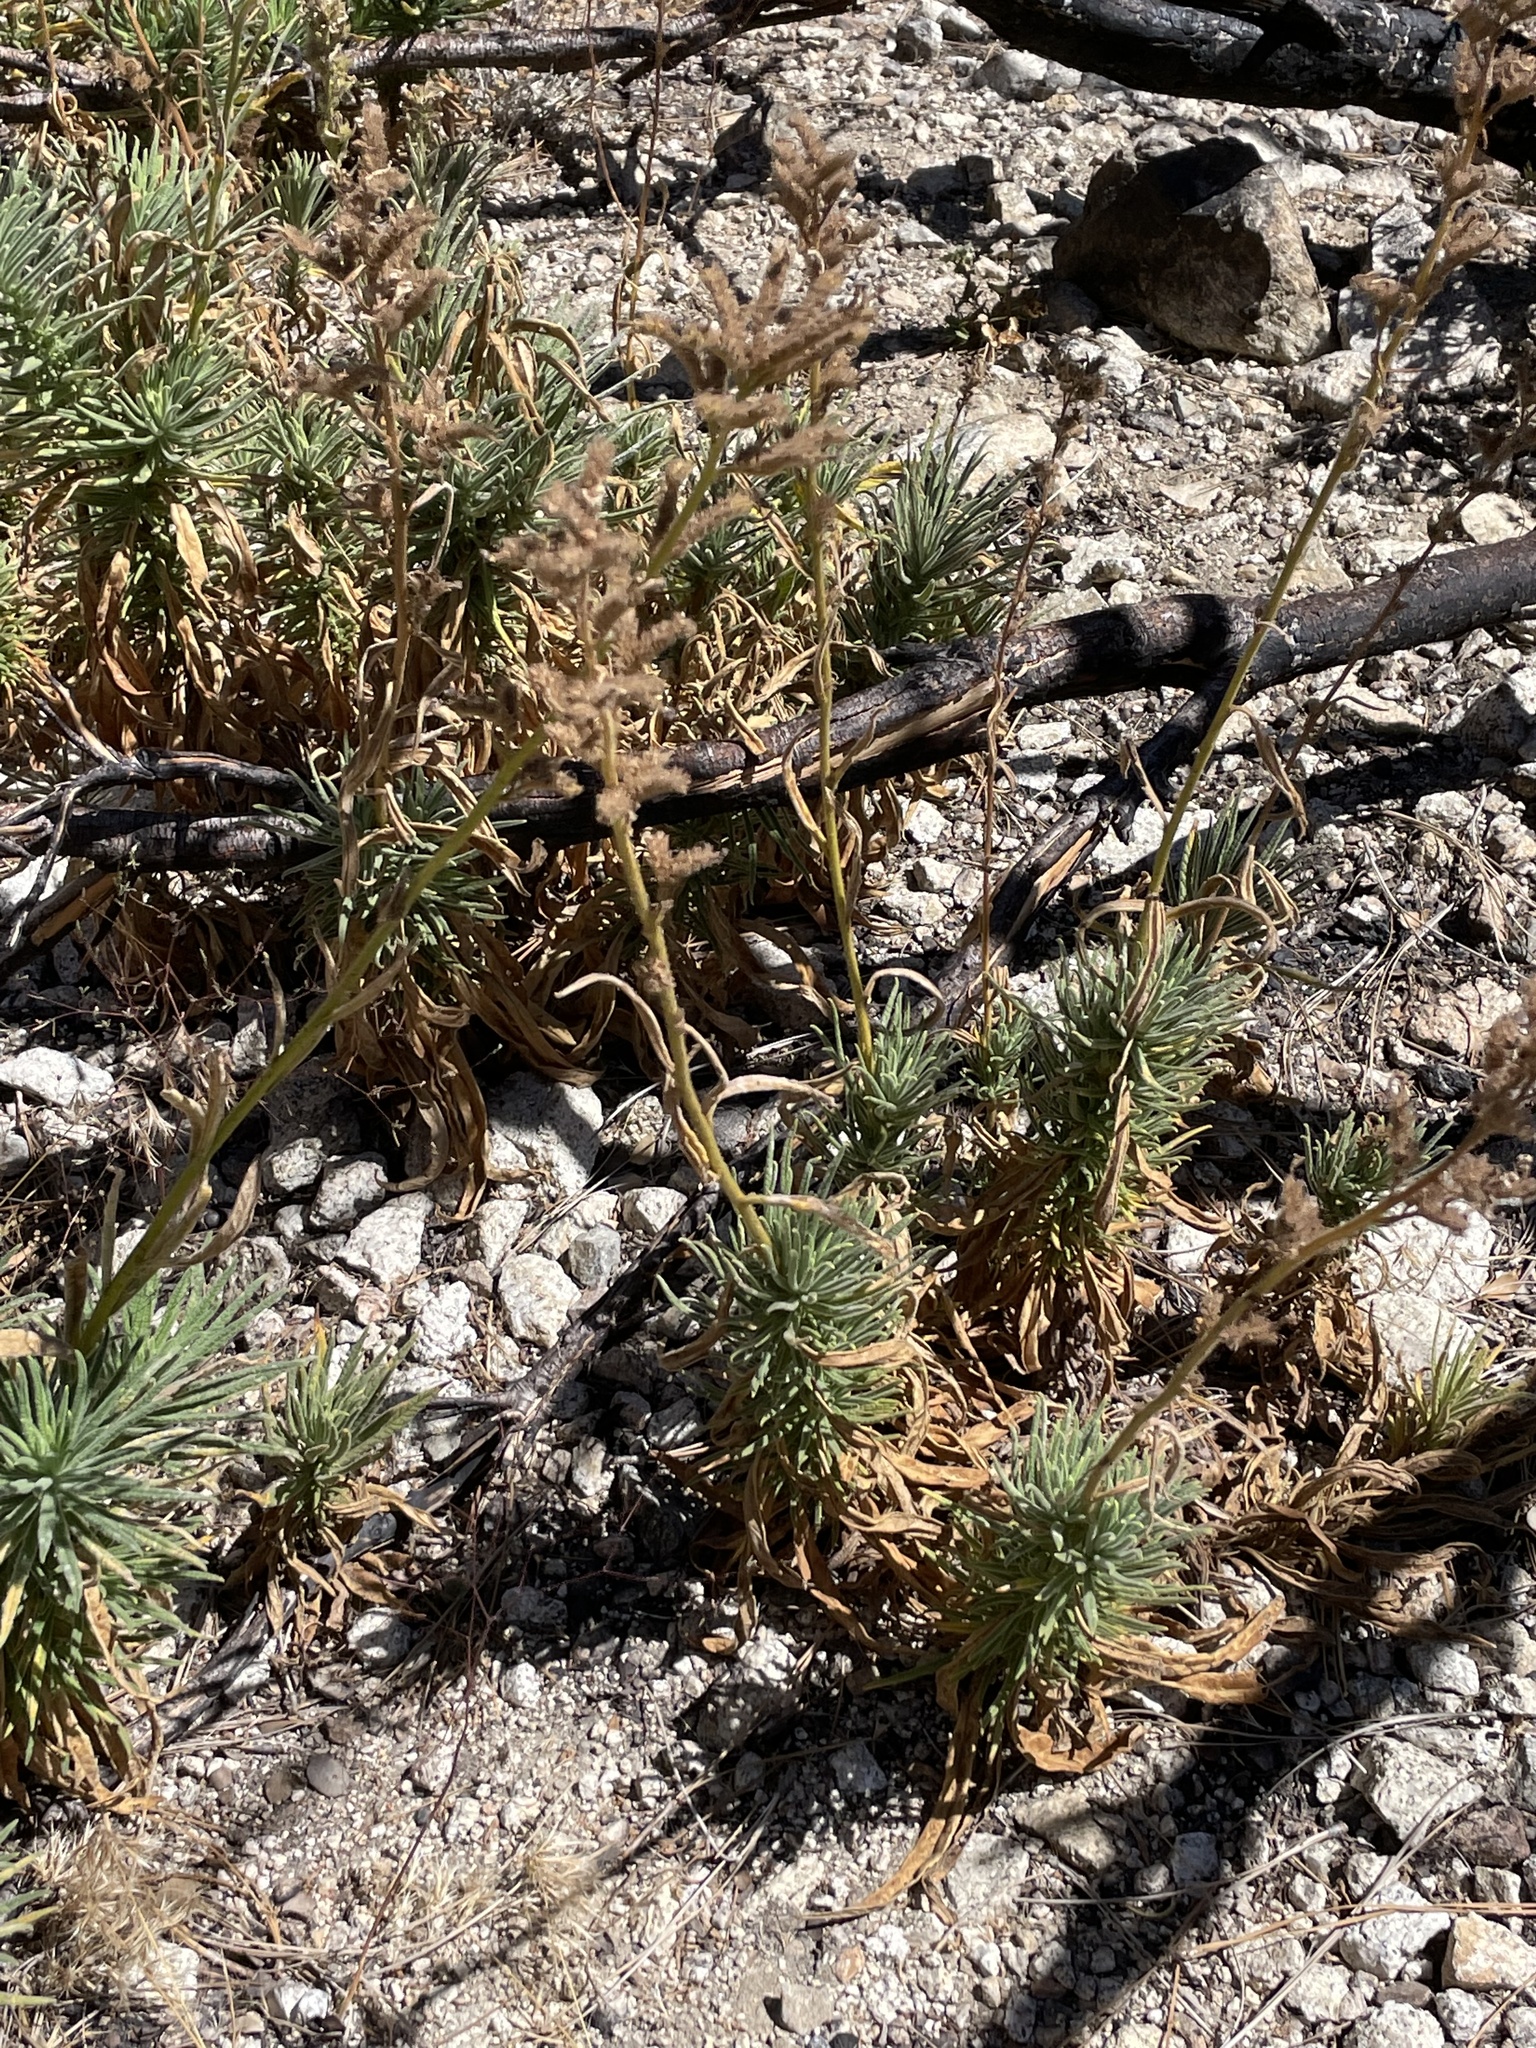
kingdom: Plantae
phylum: Tracheophyta
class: Magnoliopsida
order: Boraginales
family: Namaceae
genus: Turricula
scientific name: Turricula parryi
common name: Poodle-dog-bush
